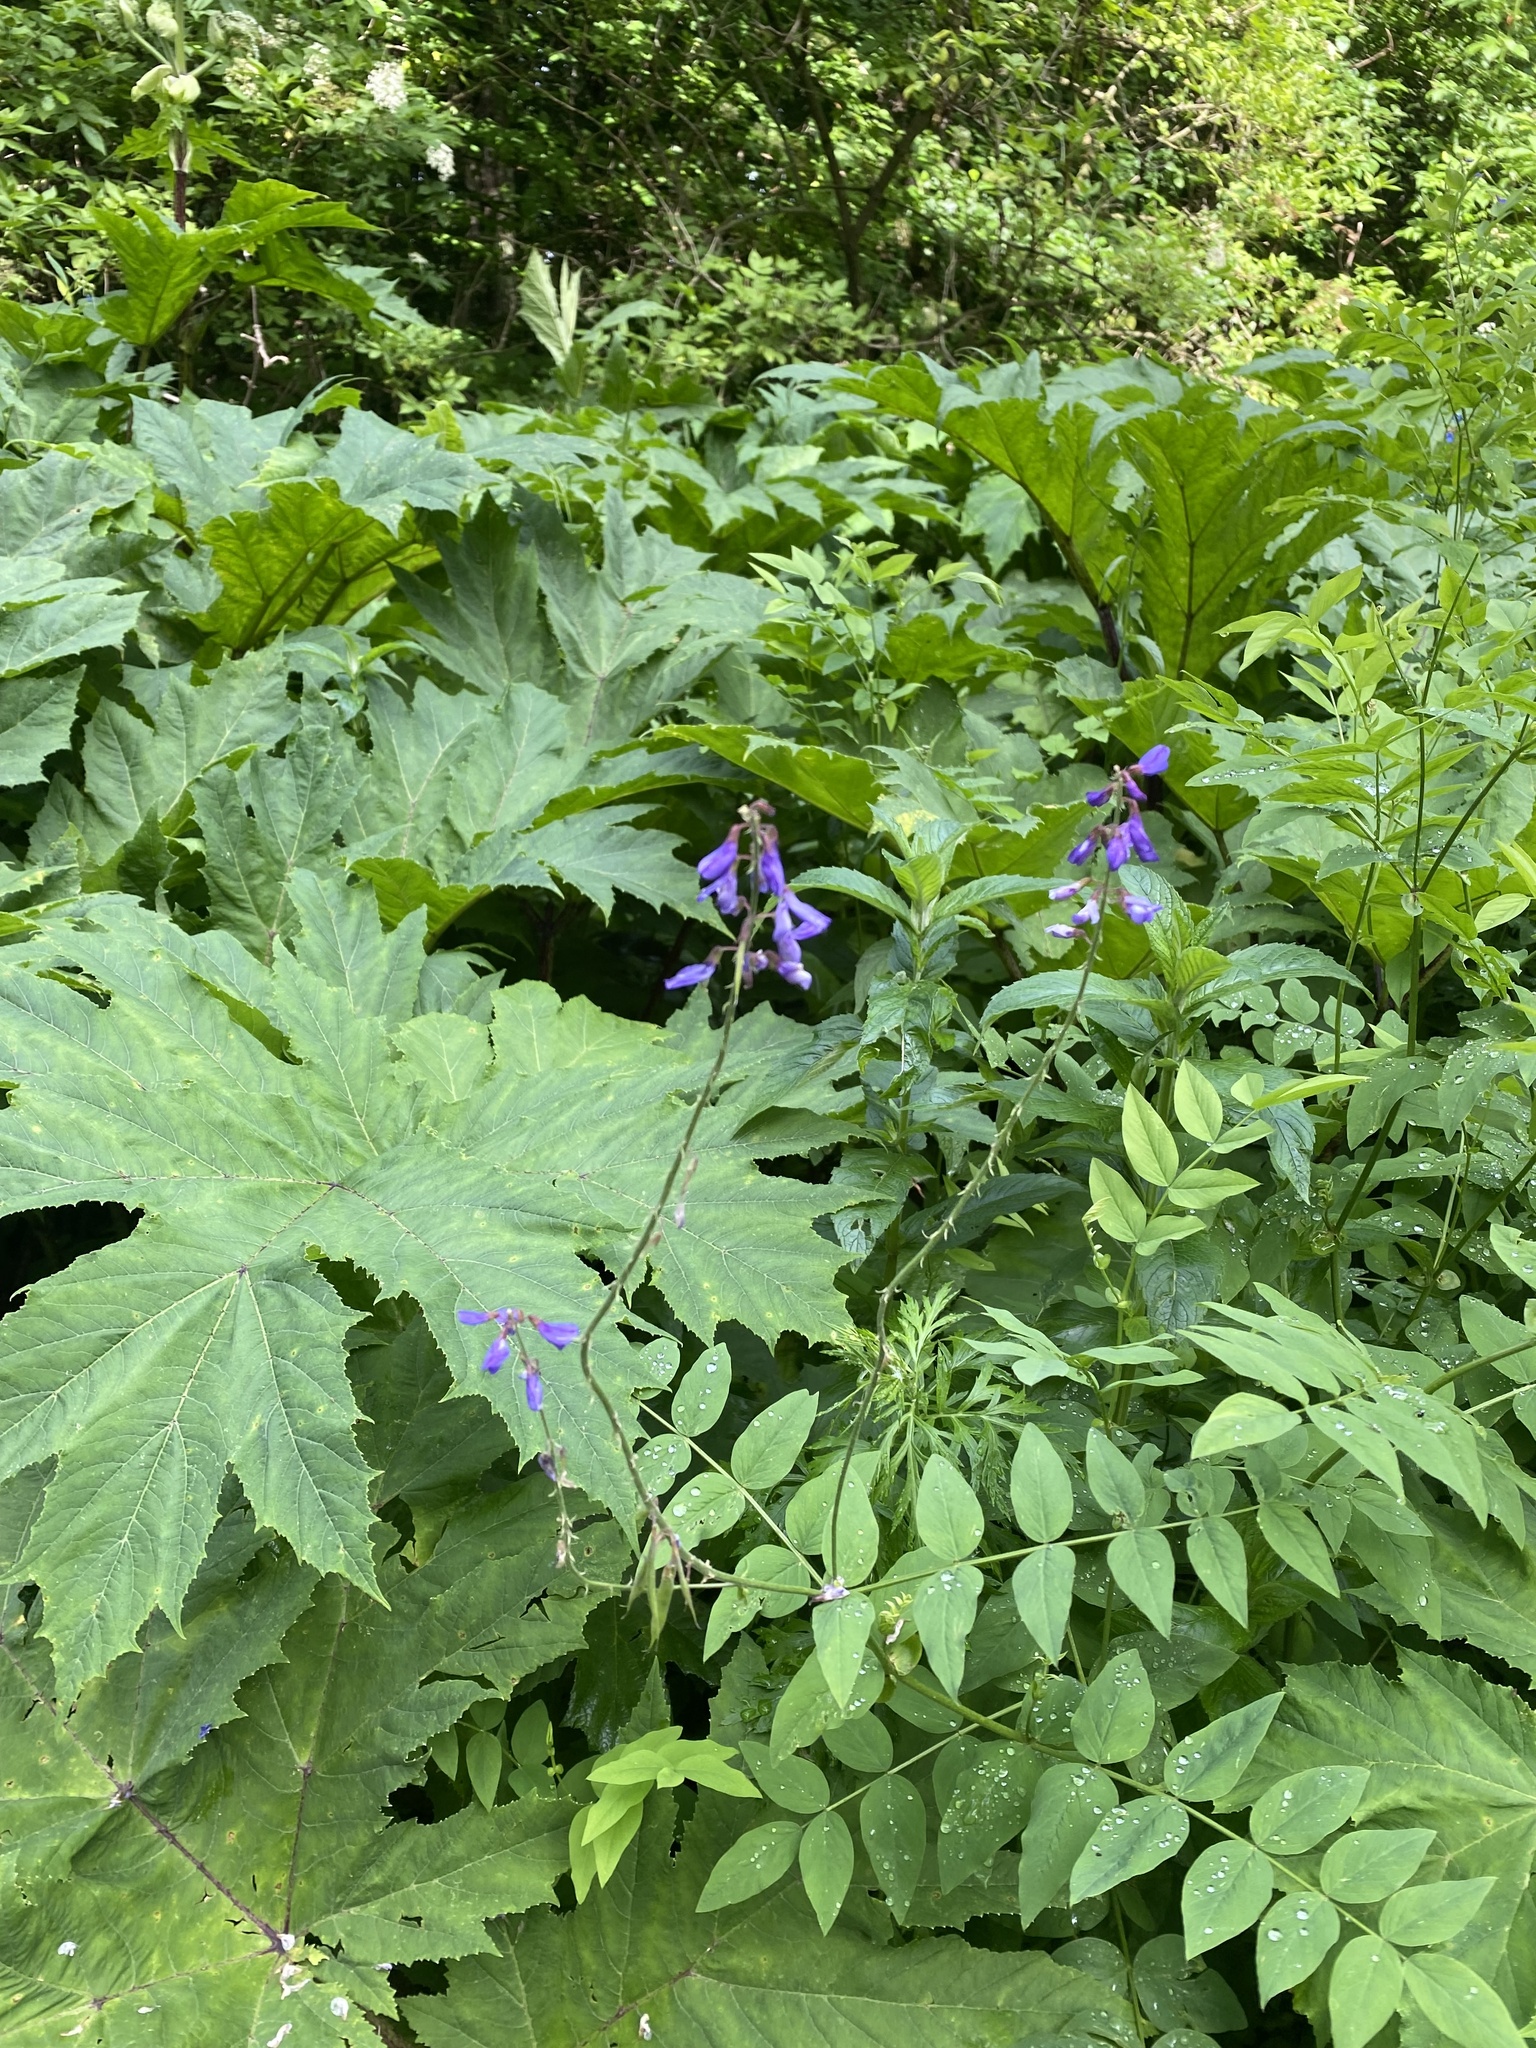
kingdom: Plantae
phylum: Tracheophyta
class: Magnoliopsida
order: Fabales
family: Fabaceae
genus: Galega
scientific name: Galega orientalis
